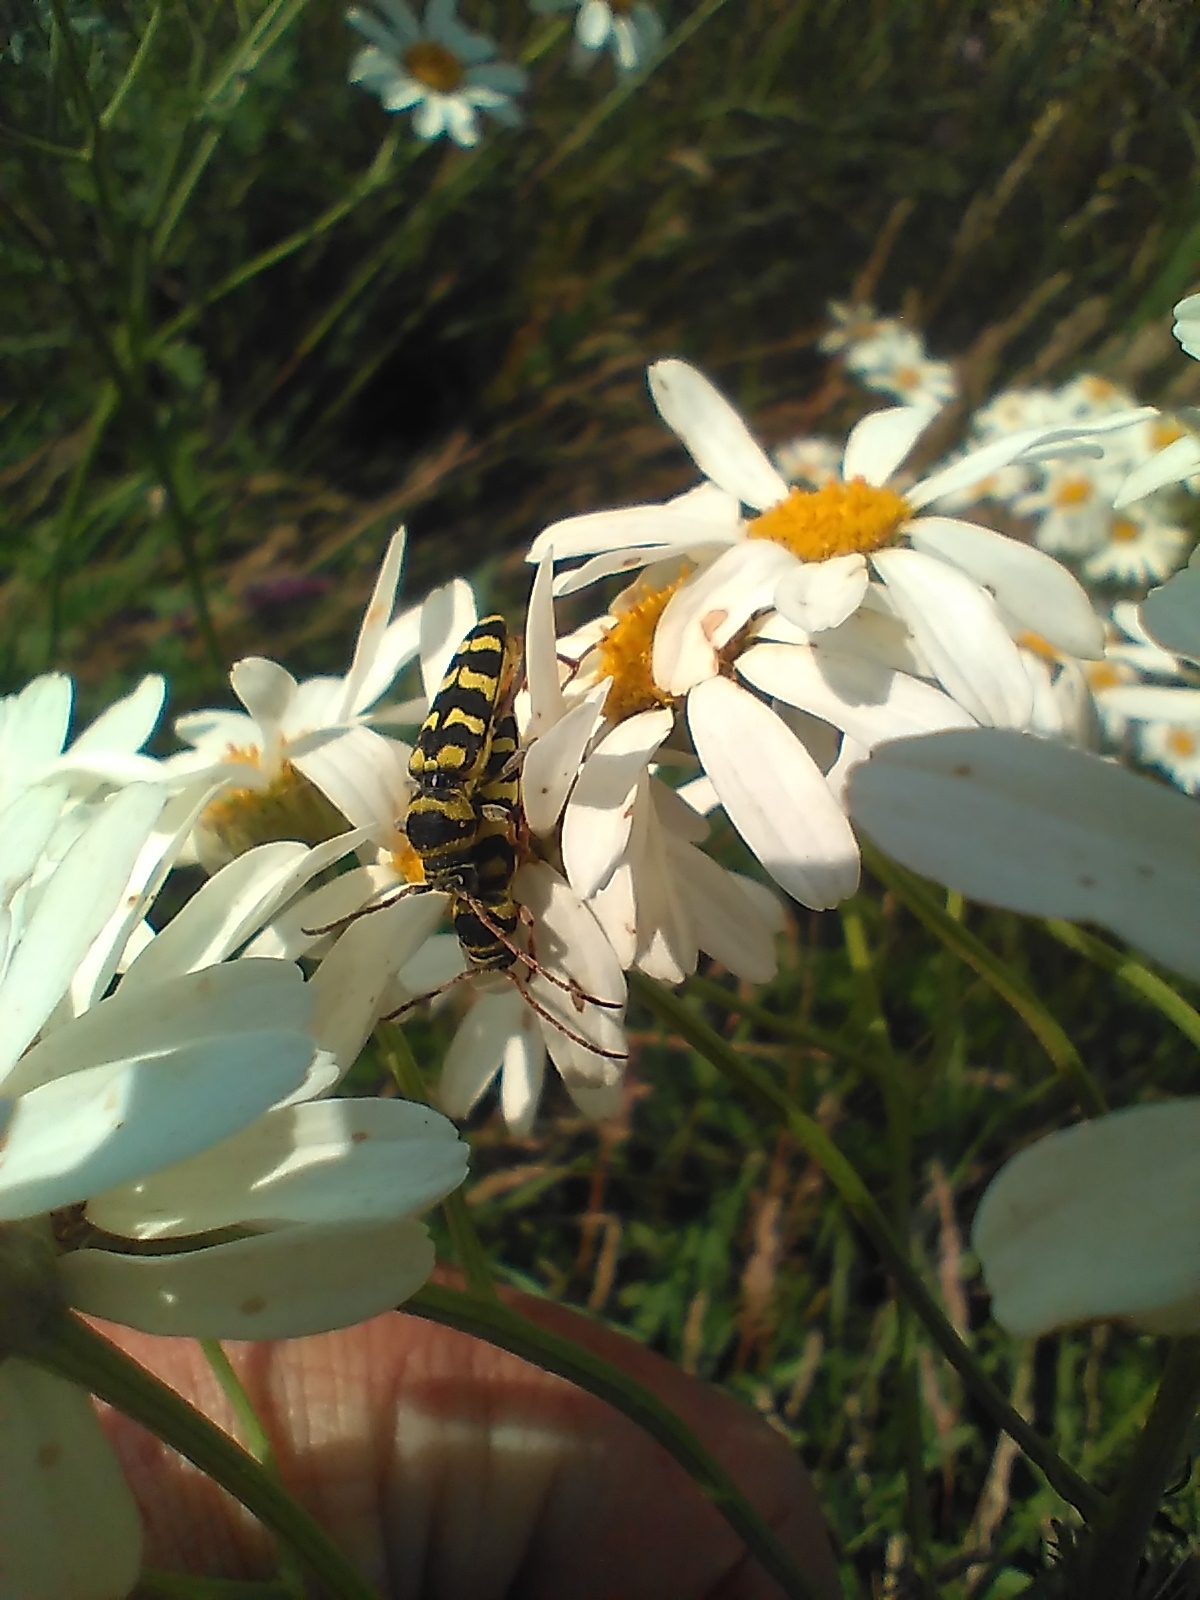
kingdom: Animalia
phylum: Arthropoda
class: Insecta
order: Coleoptera
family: Cerambycidae
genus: Plagionotus
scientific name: Plagionotus floralis
